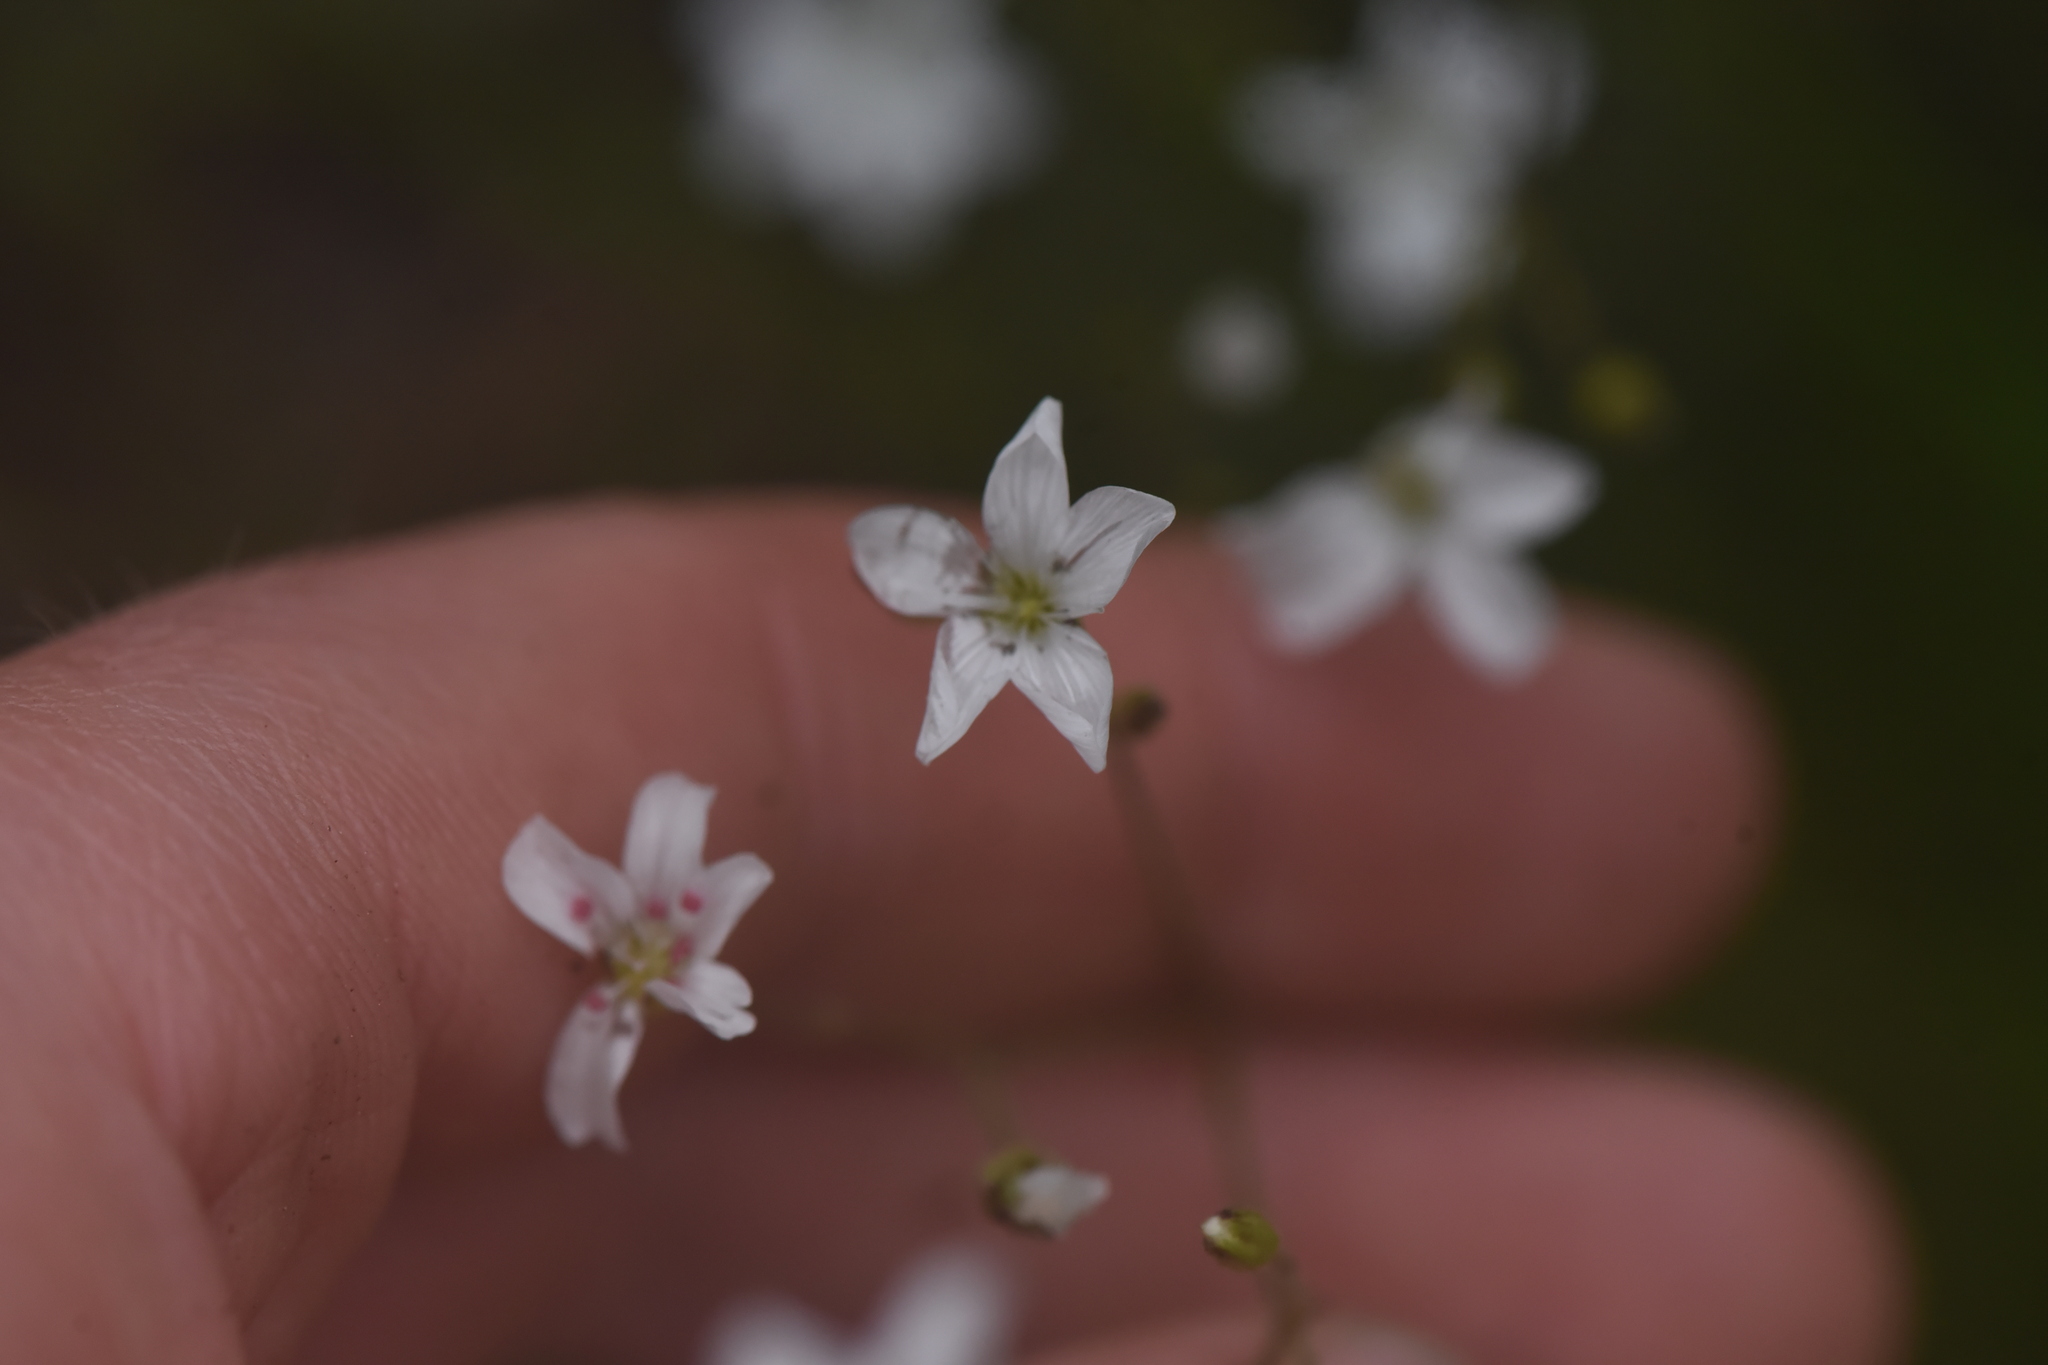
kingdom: Plantae
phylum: Tracheophyta
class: Magnoliopsida
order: Caryophyllales
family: Caryophyllaceae
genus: Eremogone
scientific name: Eremogone capillaris
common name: Slender mountain sandwort
